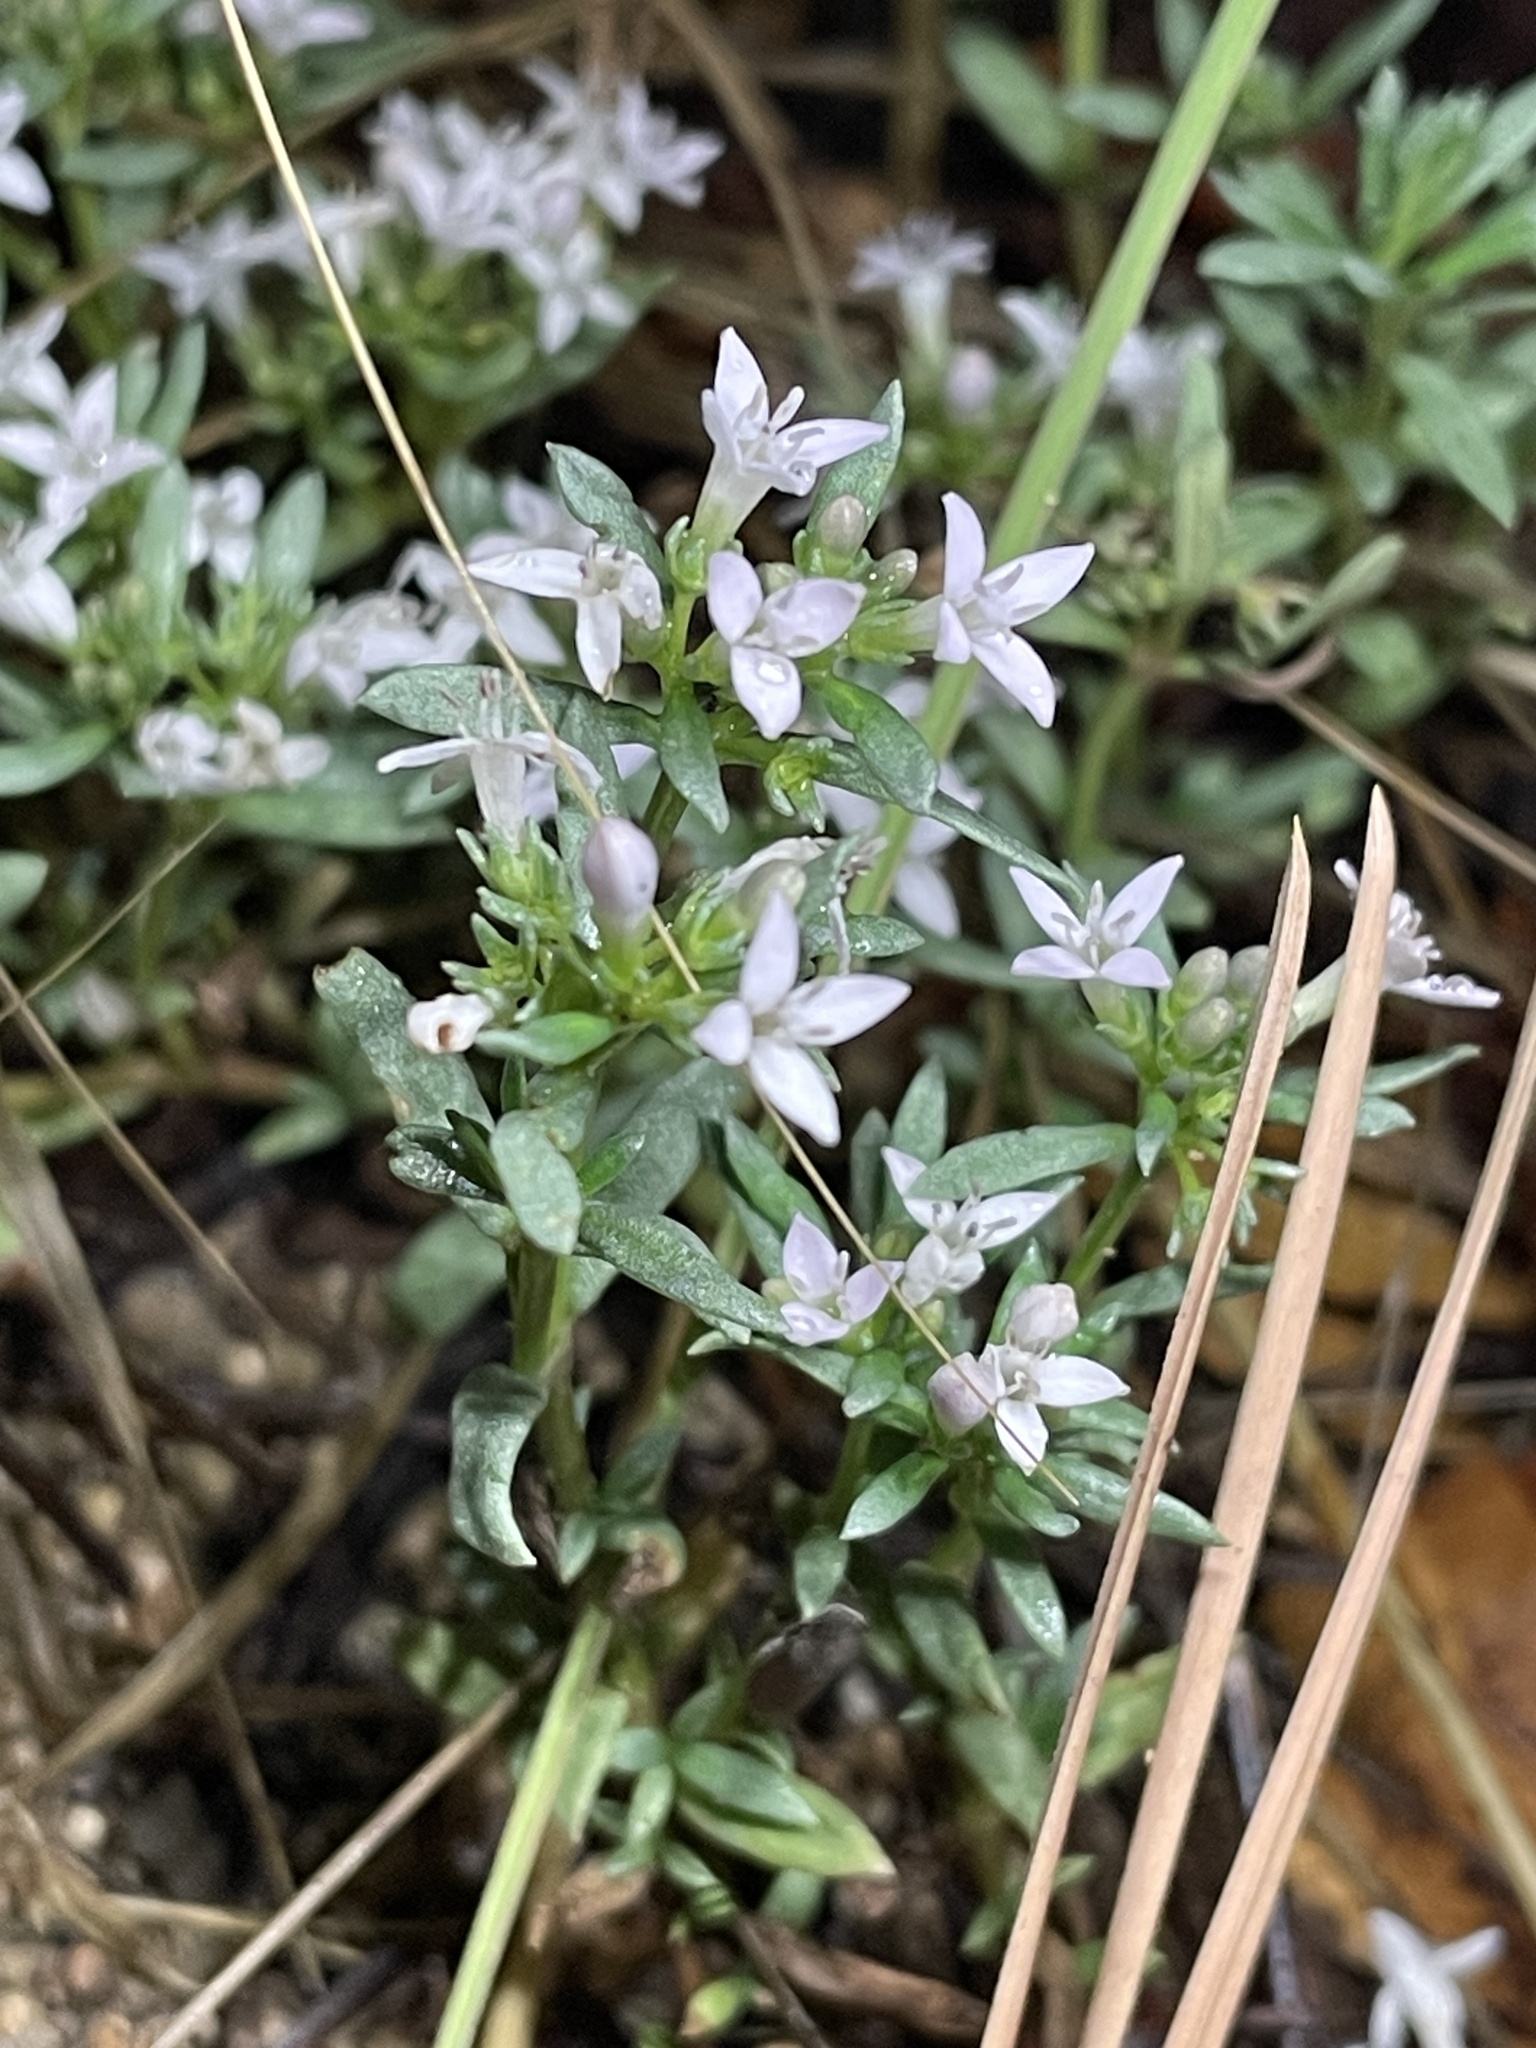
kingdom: Plantae
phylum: Tracheophyta
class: Magnoliopsida
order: Gentianales
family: Rubiaceae
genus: Houstonia
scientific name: Houstonia wrightii
